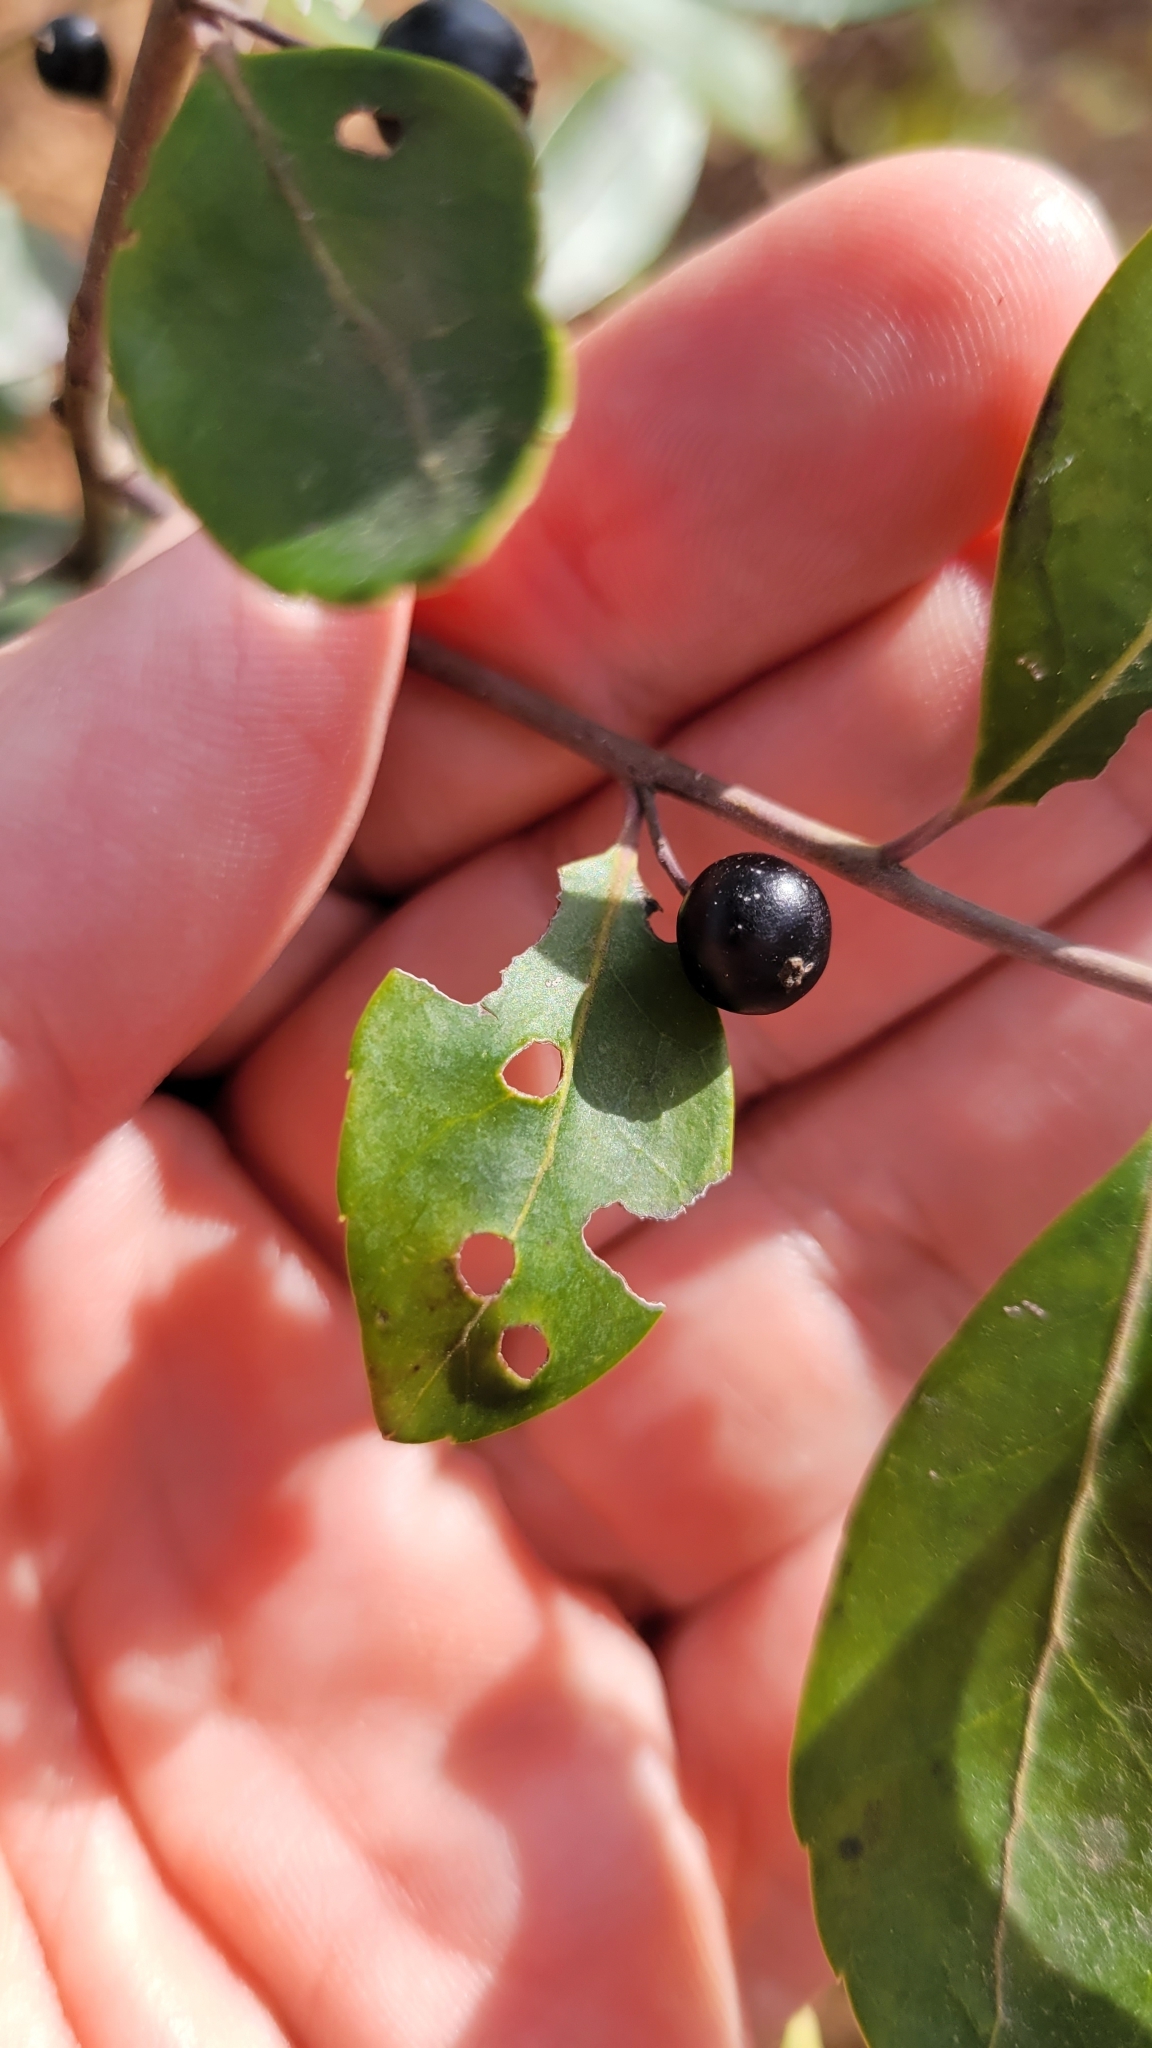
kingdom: Plantae
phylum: Tracheophyta
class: Magnoliopsida
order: Aquifoliales
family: Aquifoliaceae
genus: Ilex
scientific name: Ilex glabra
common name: Bitter gallberry
